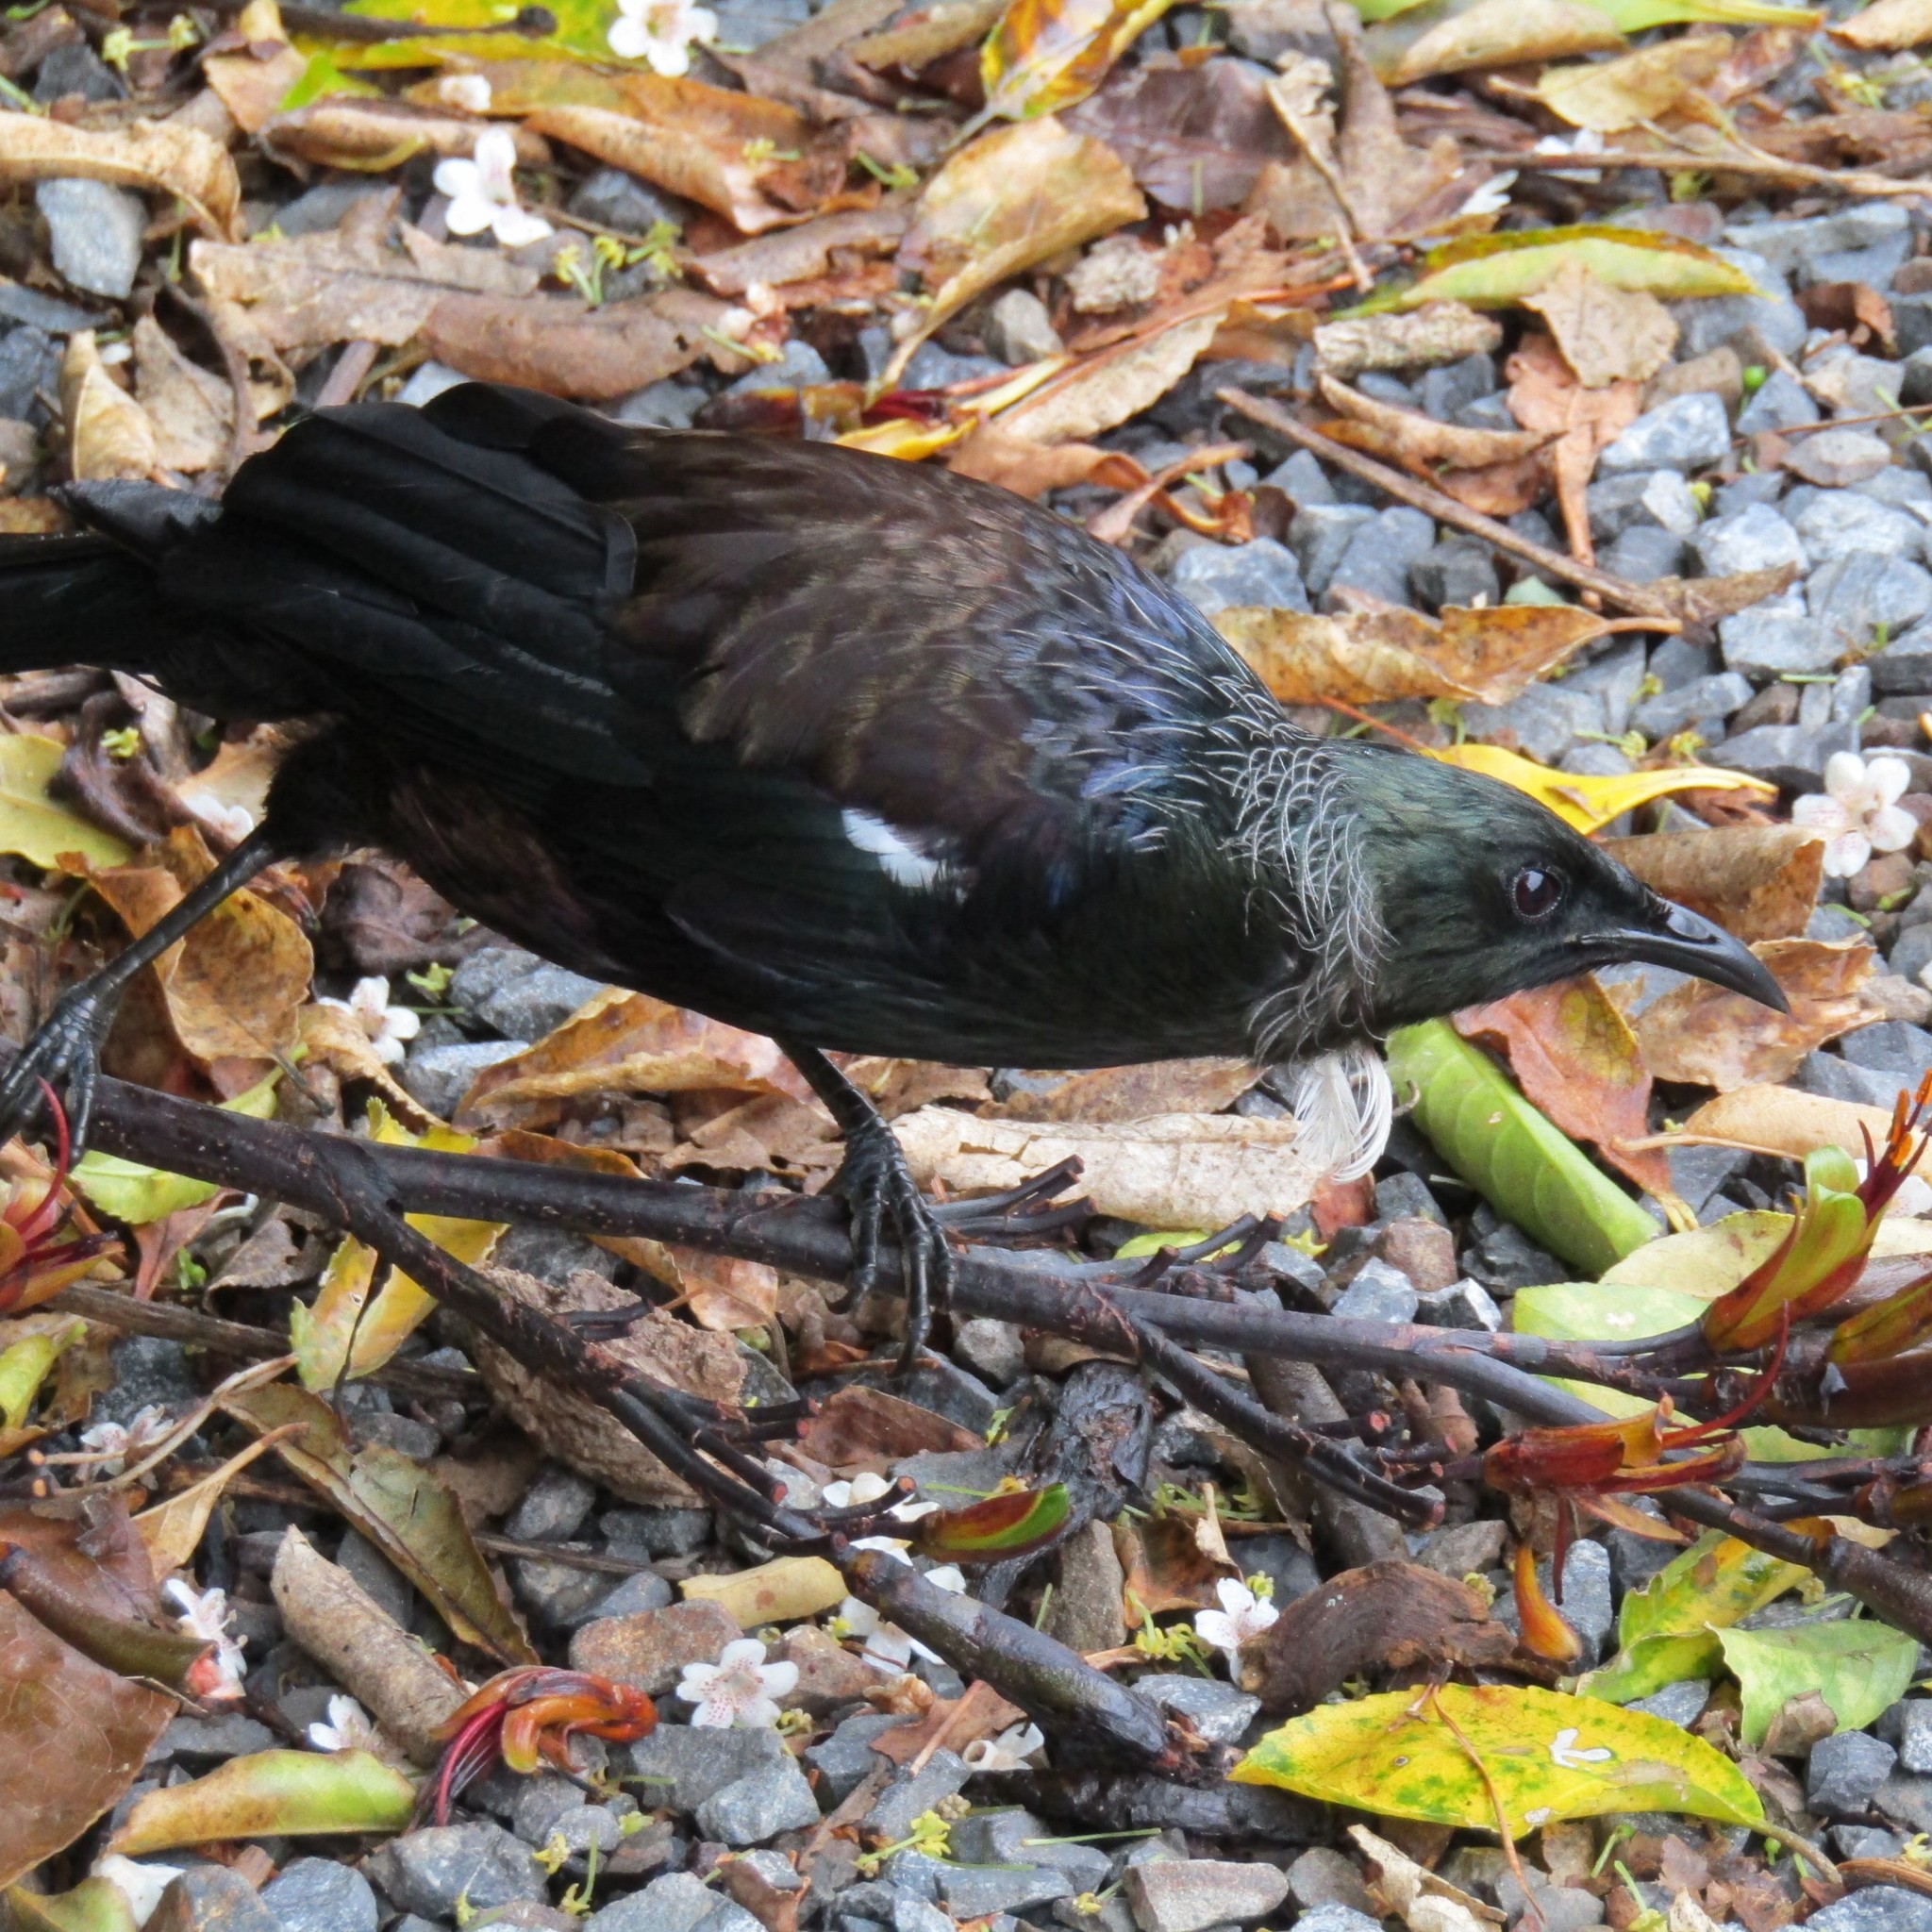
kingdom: Animalia
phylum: Chordata
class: Aves
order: Passeriformes
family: Meliphagidae
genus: Prosthemadera
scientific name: Prosthemadera novaeseelandiae
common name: Tui
